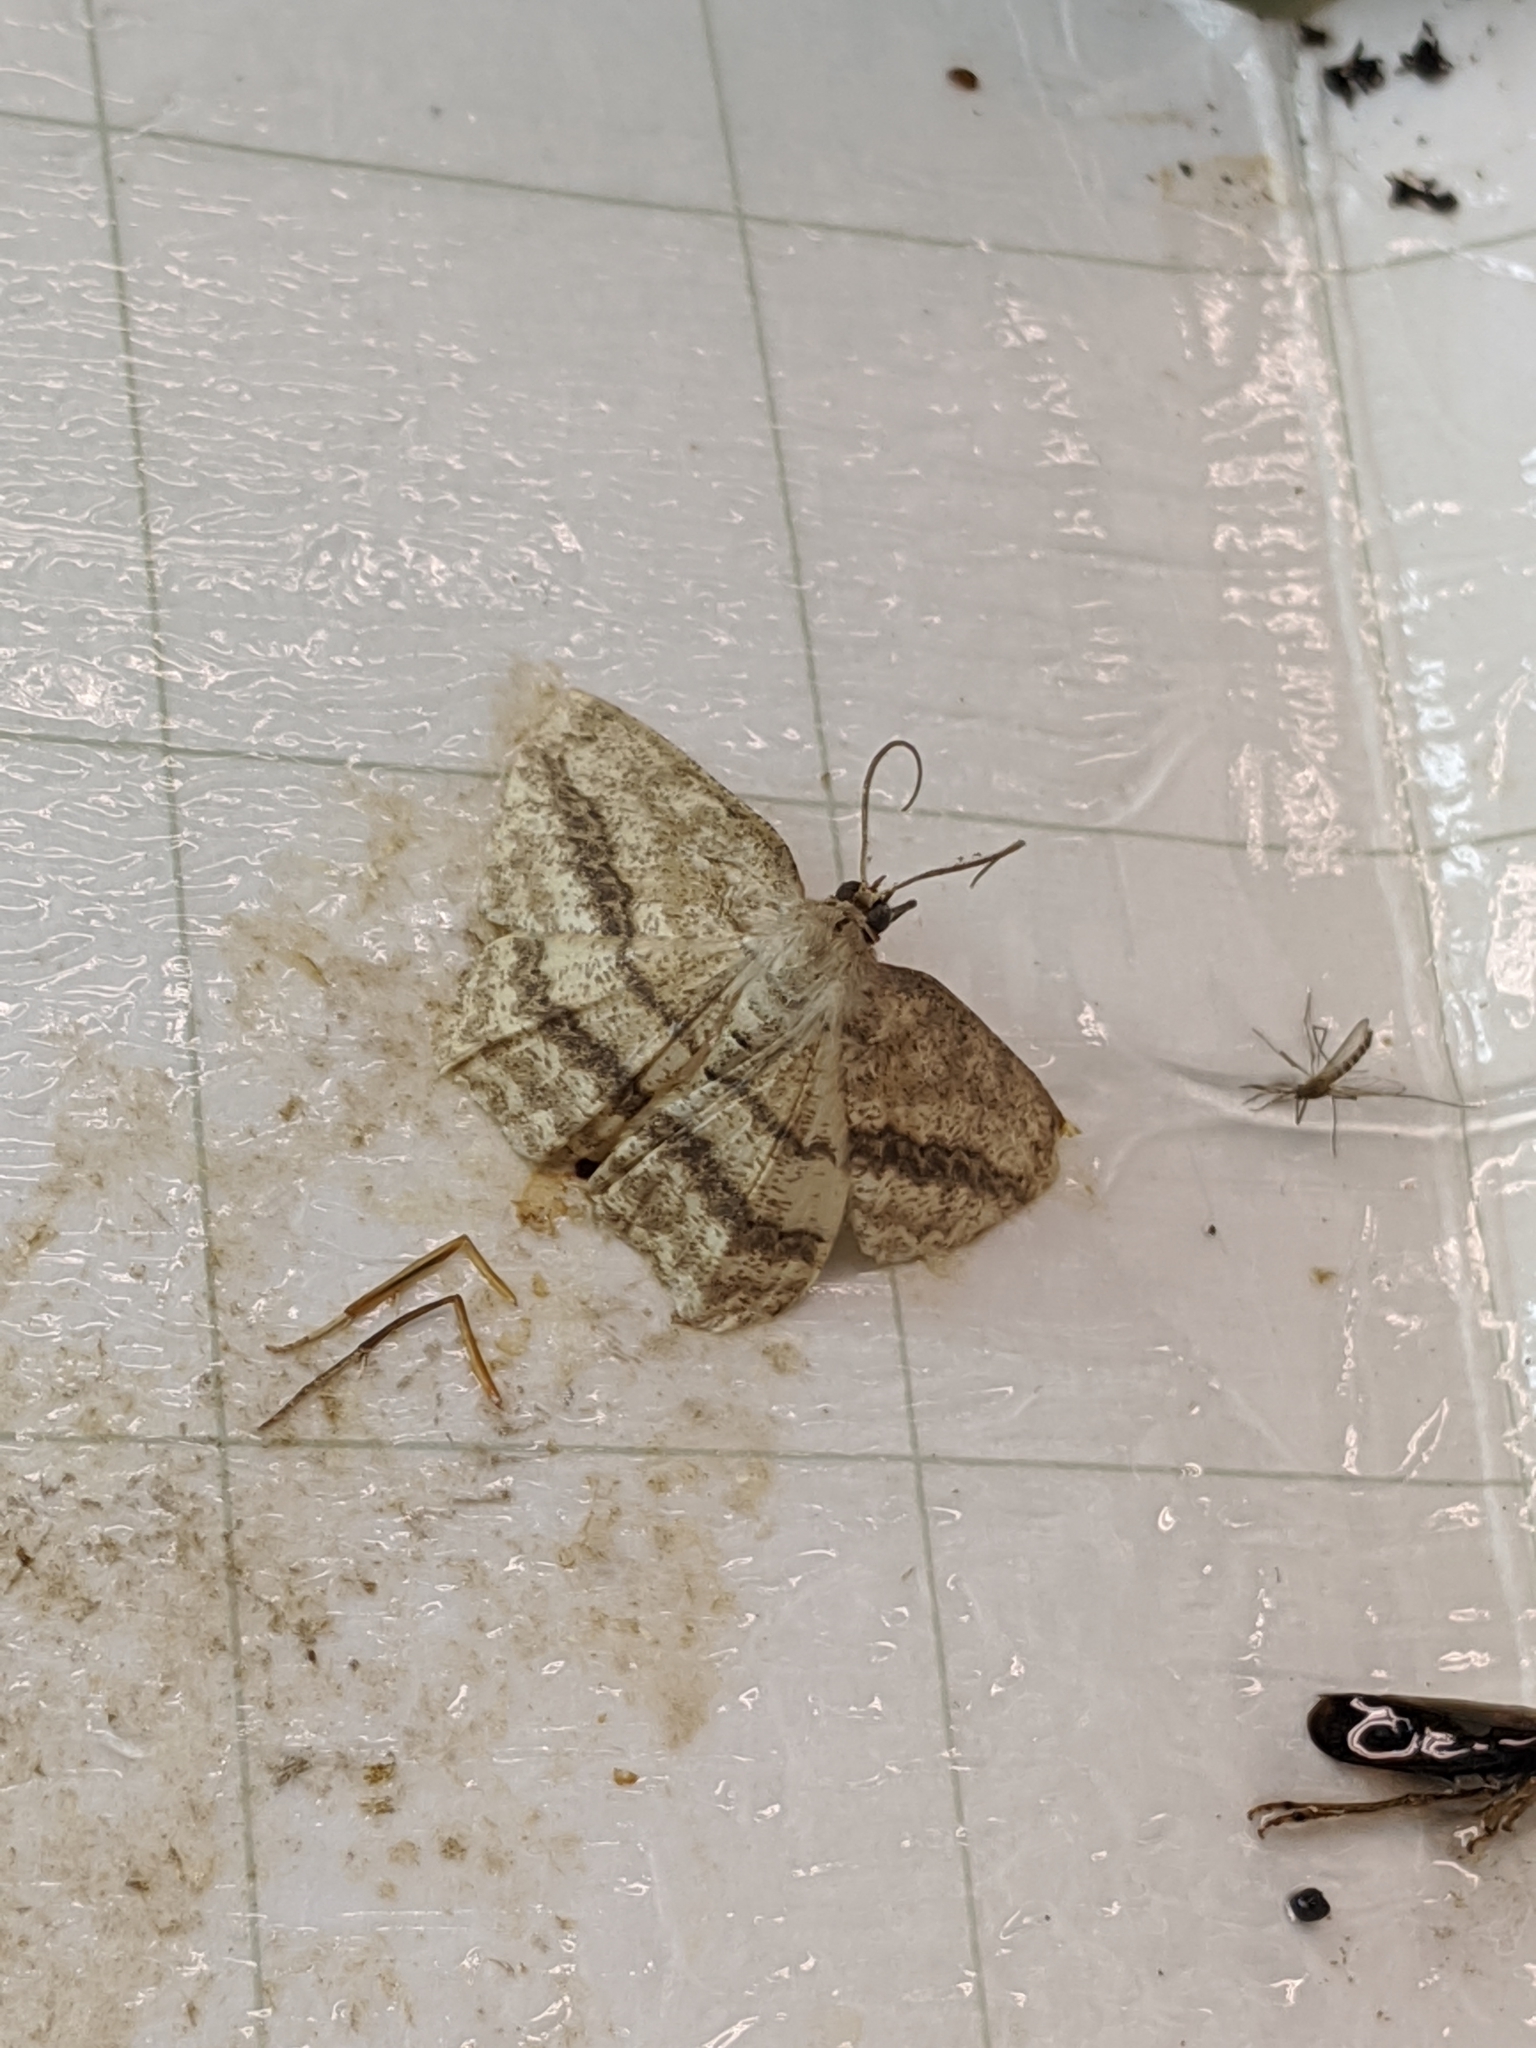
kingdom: Animalia
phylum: Arthropoda
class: Insecta
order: Lepidoptera
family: Geometridae
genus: Luxiaria
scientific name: Luxiaria obliquata
